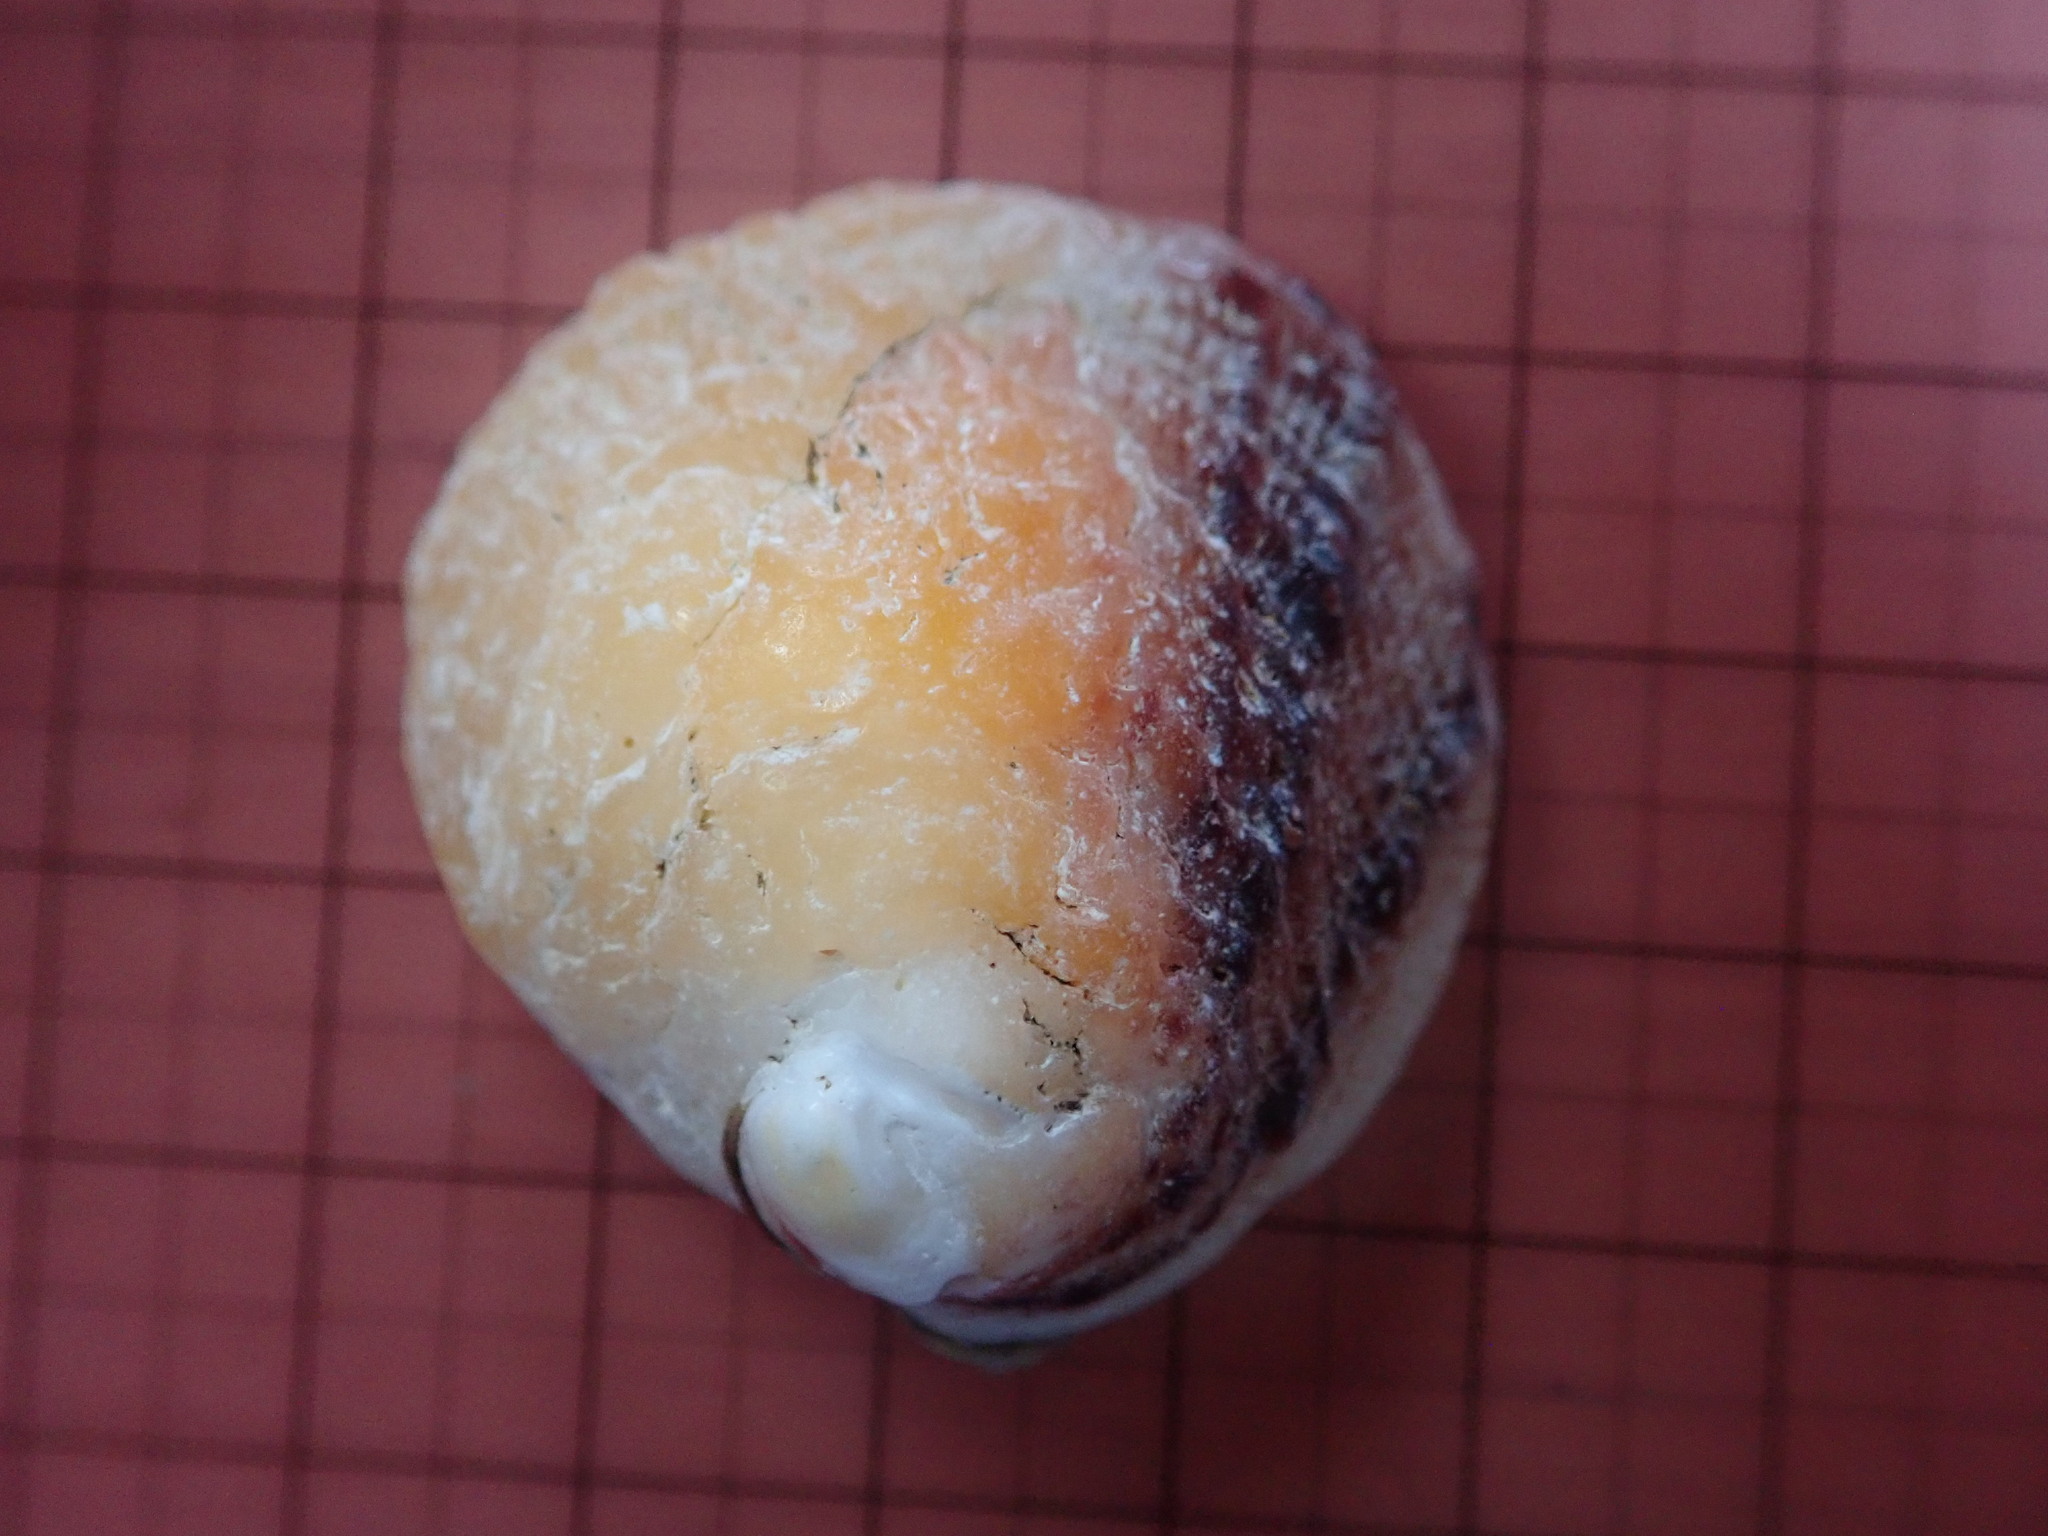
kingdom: Animalia
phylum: Mollusca
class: Bivalvia
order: Venerida
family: Chamidae
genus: Chama
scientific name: Chama arcana
